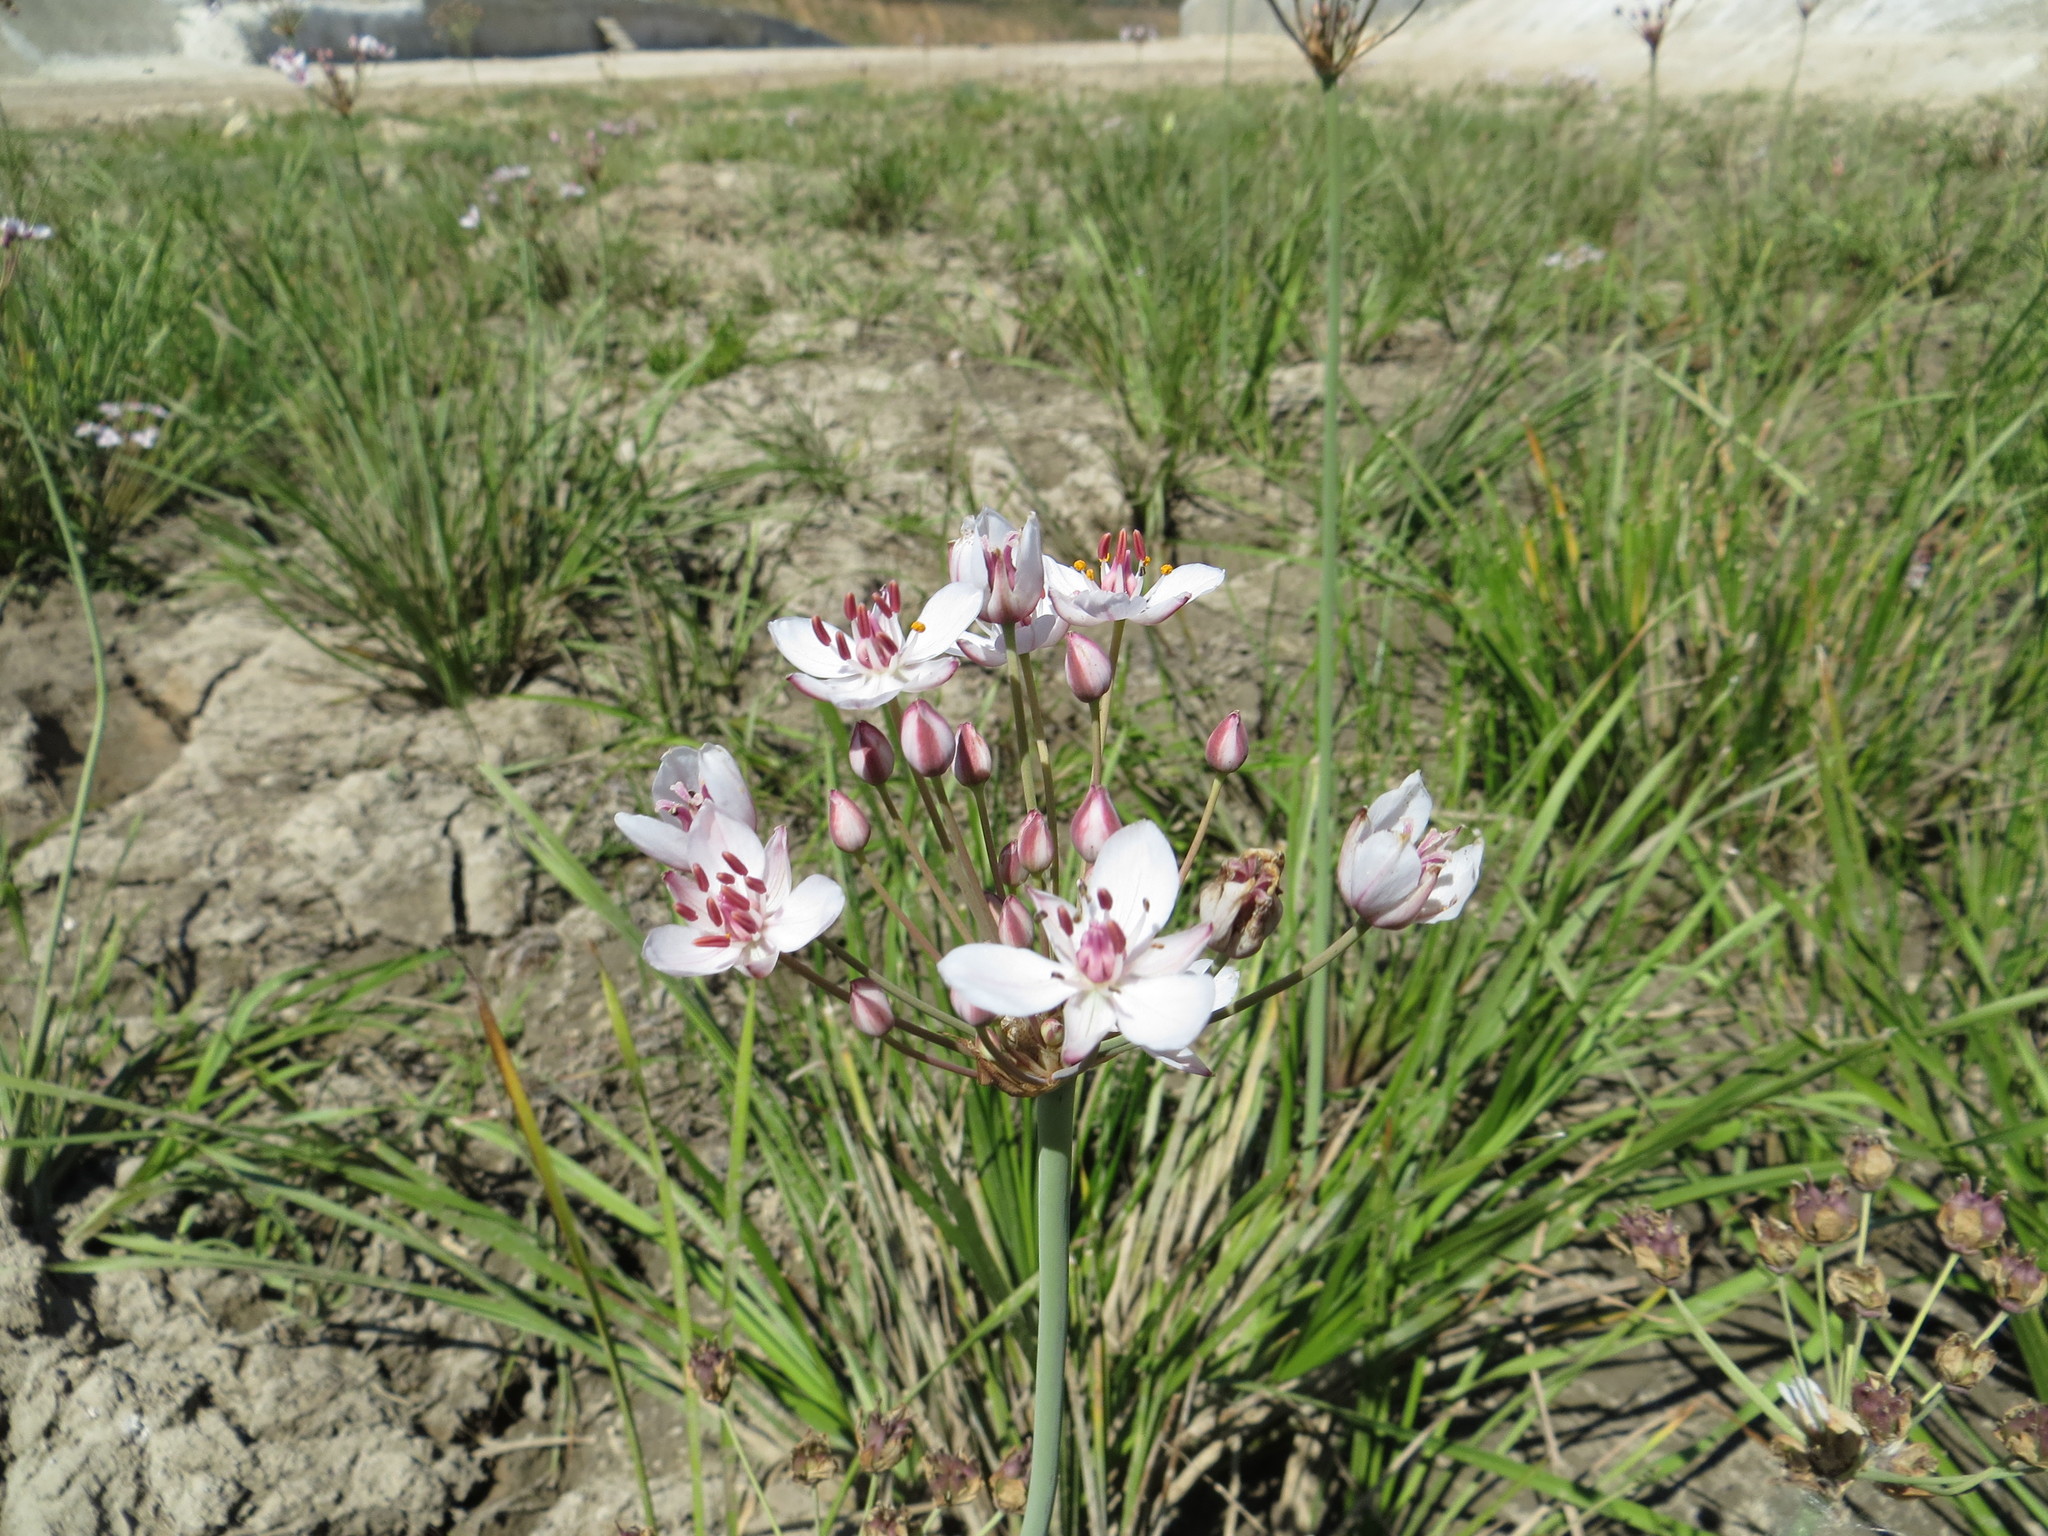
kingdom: Plantae
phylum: Tracheophyta
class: Liliopsida
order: Alismatales
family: Butomaceae
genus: Butomus
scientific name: Butomus umbellatus
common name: Flowering-rush
